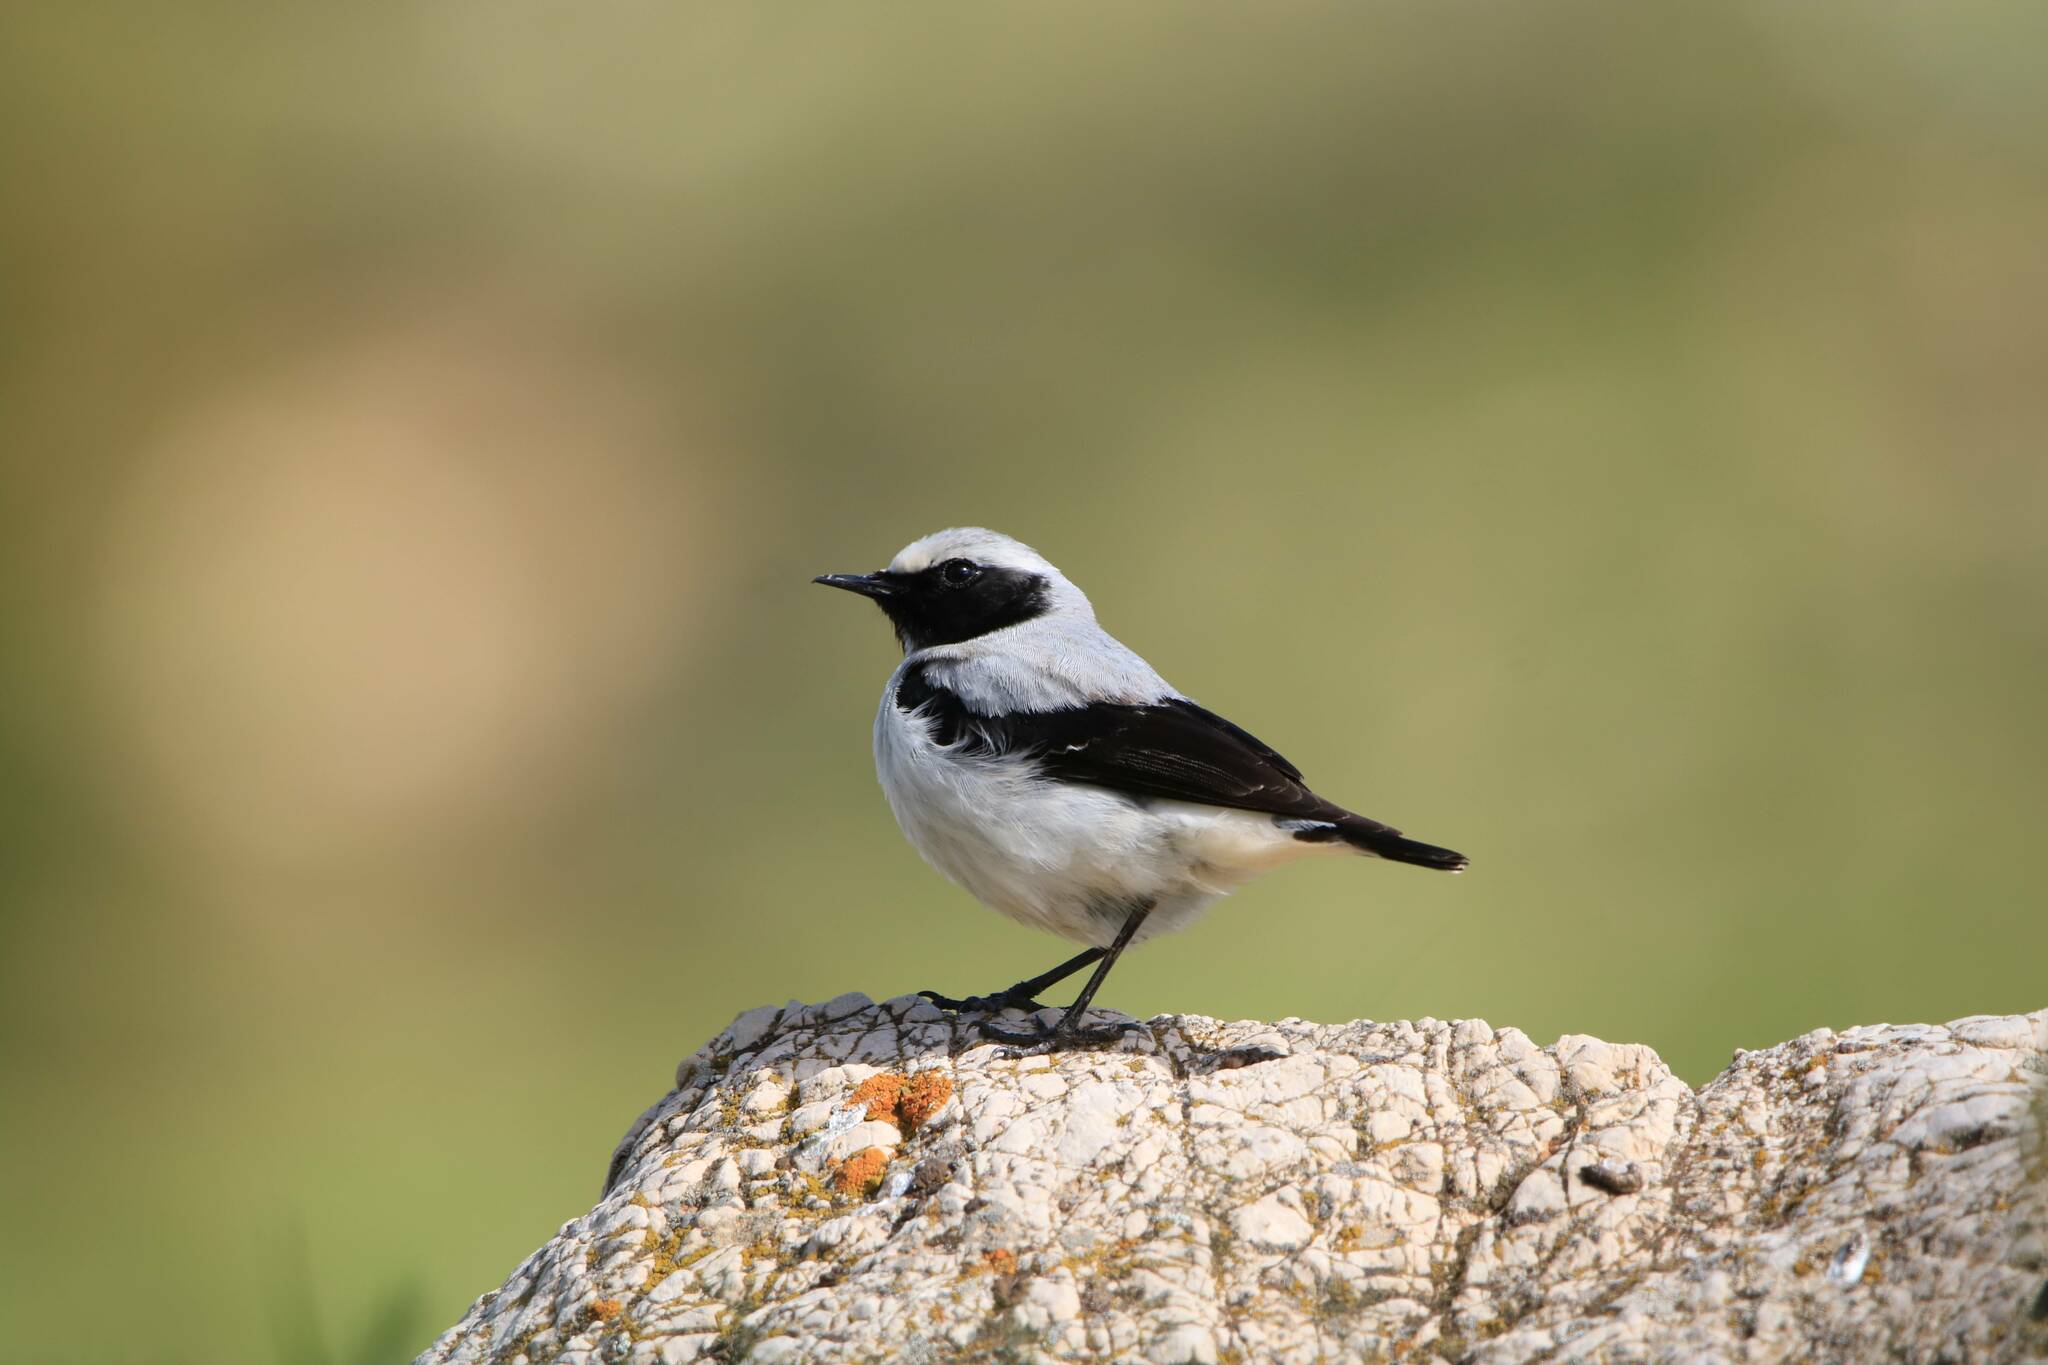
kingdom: Animalia
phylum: Chordata
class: Aves
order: Passeriformes
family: Muscicapidae
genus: Oenanthe
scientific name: Oenanthe oenanthe
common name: Northern wheatear
